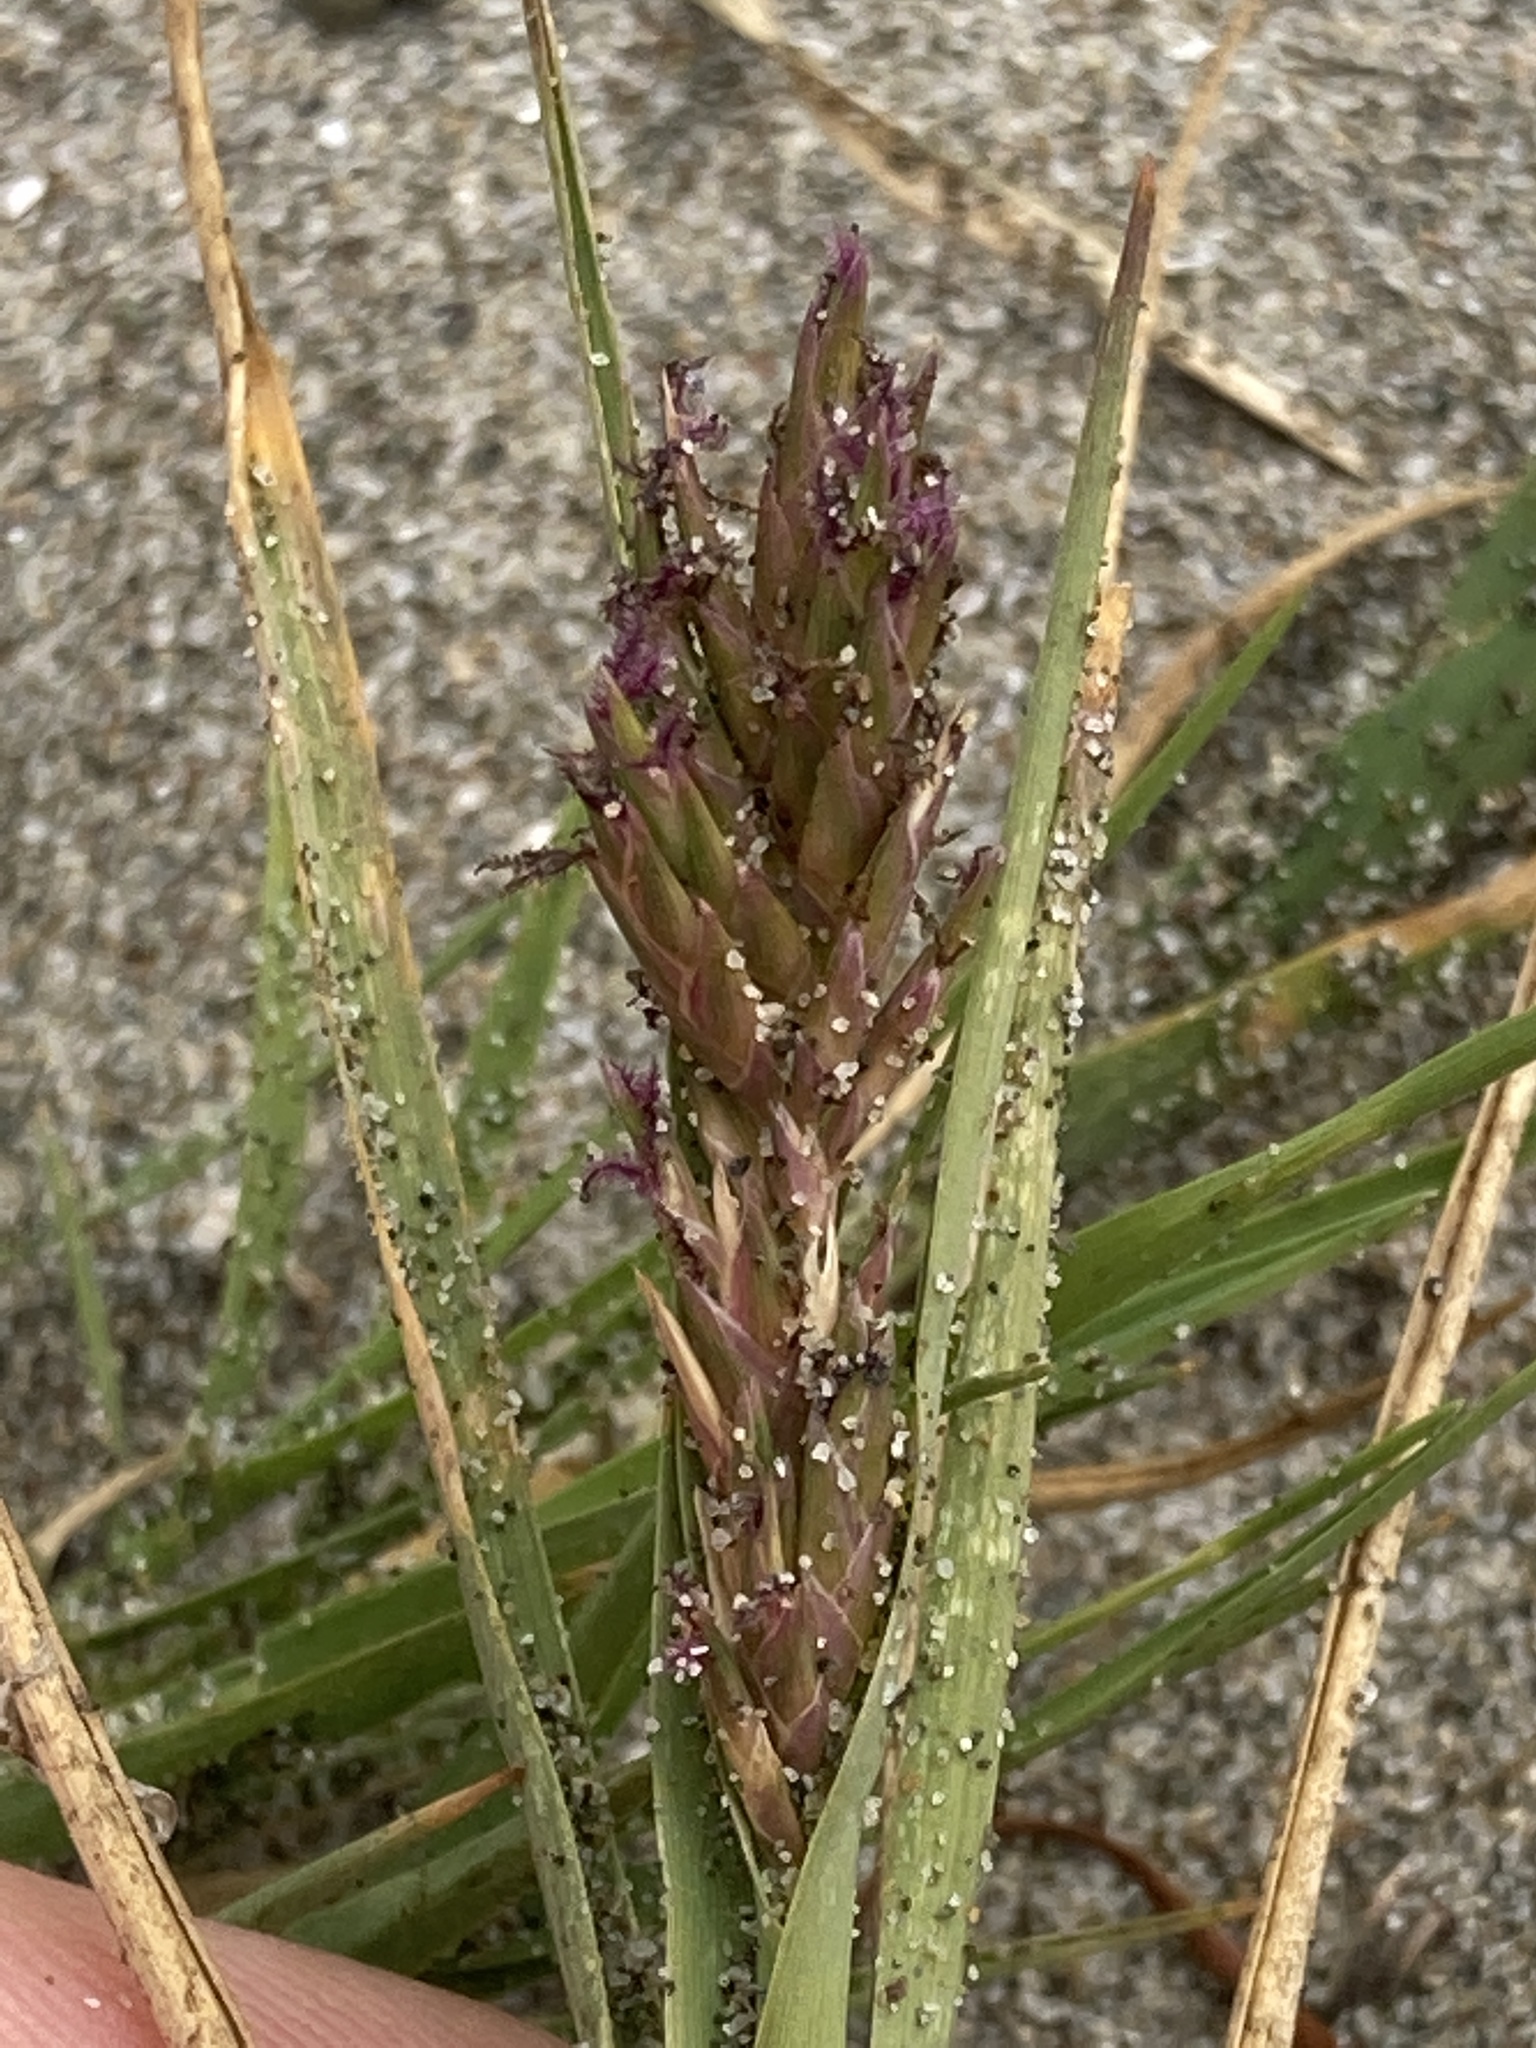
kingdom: Plantae
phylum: Tracheophyta
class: Liliopsida
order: Poales
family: Poaceae
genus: Distichlis
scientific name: Distichlis spicata
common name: Saltgrass
